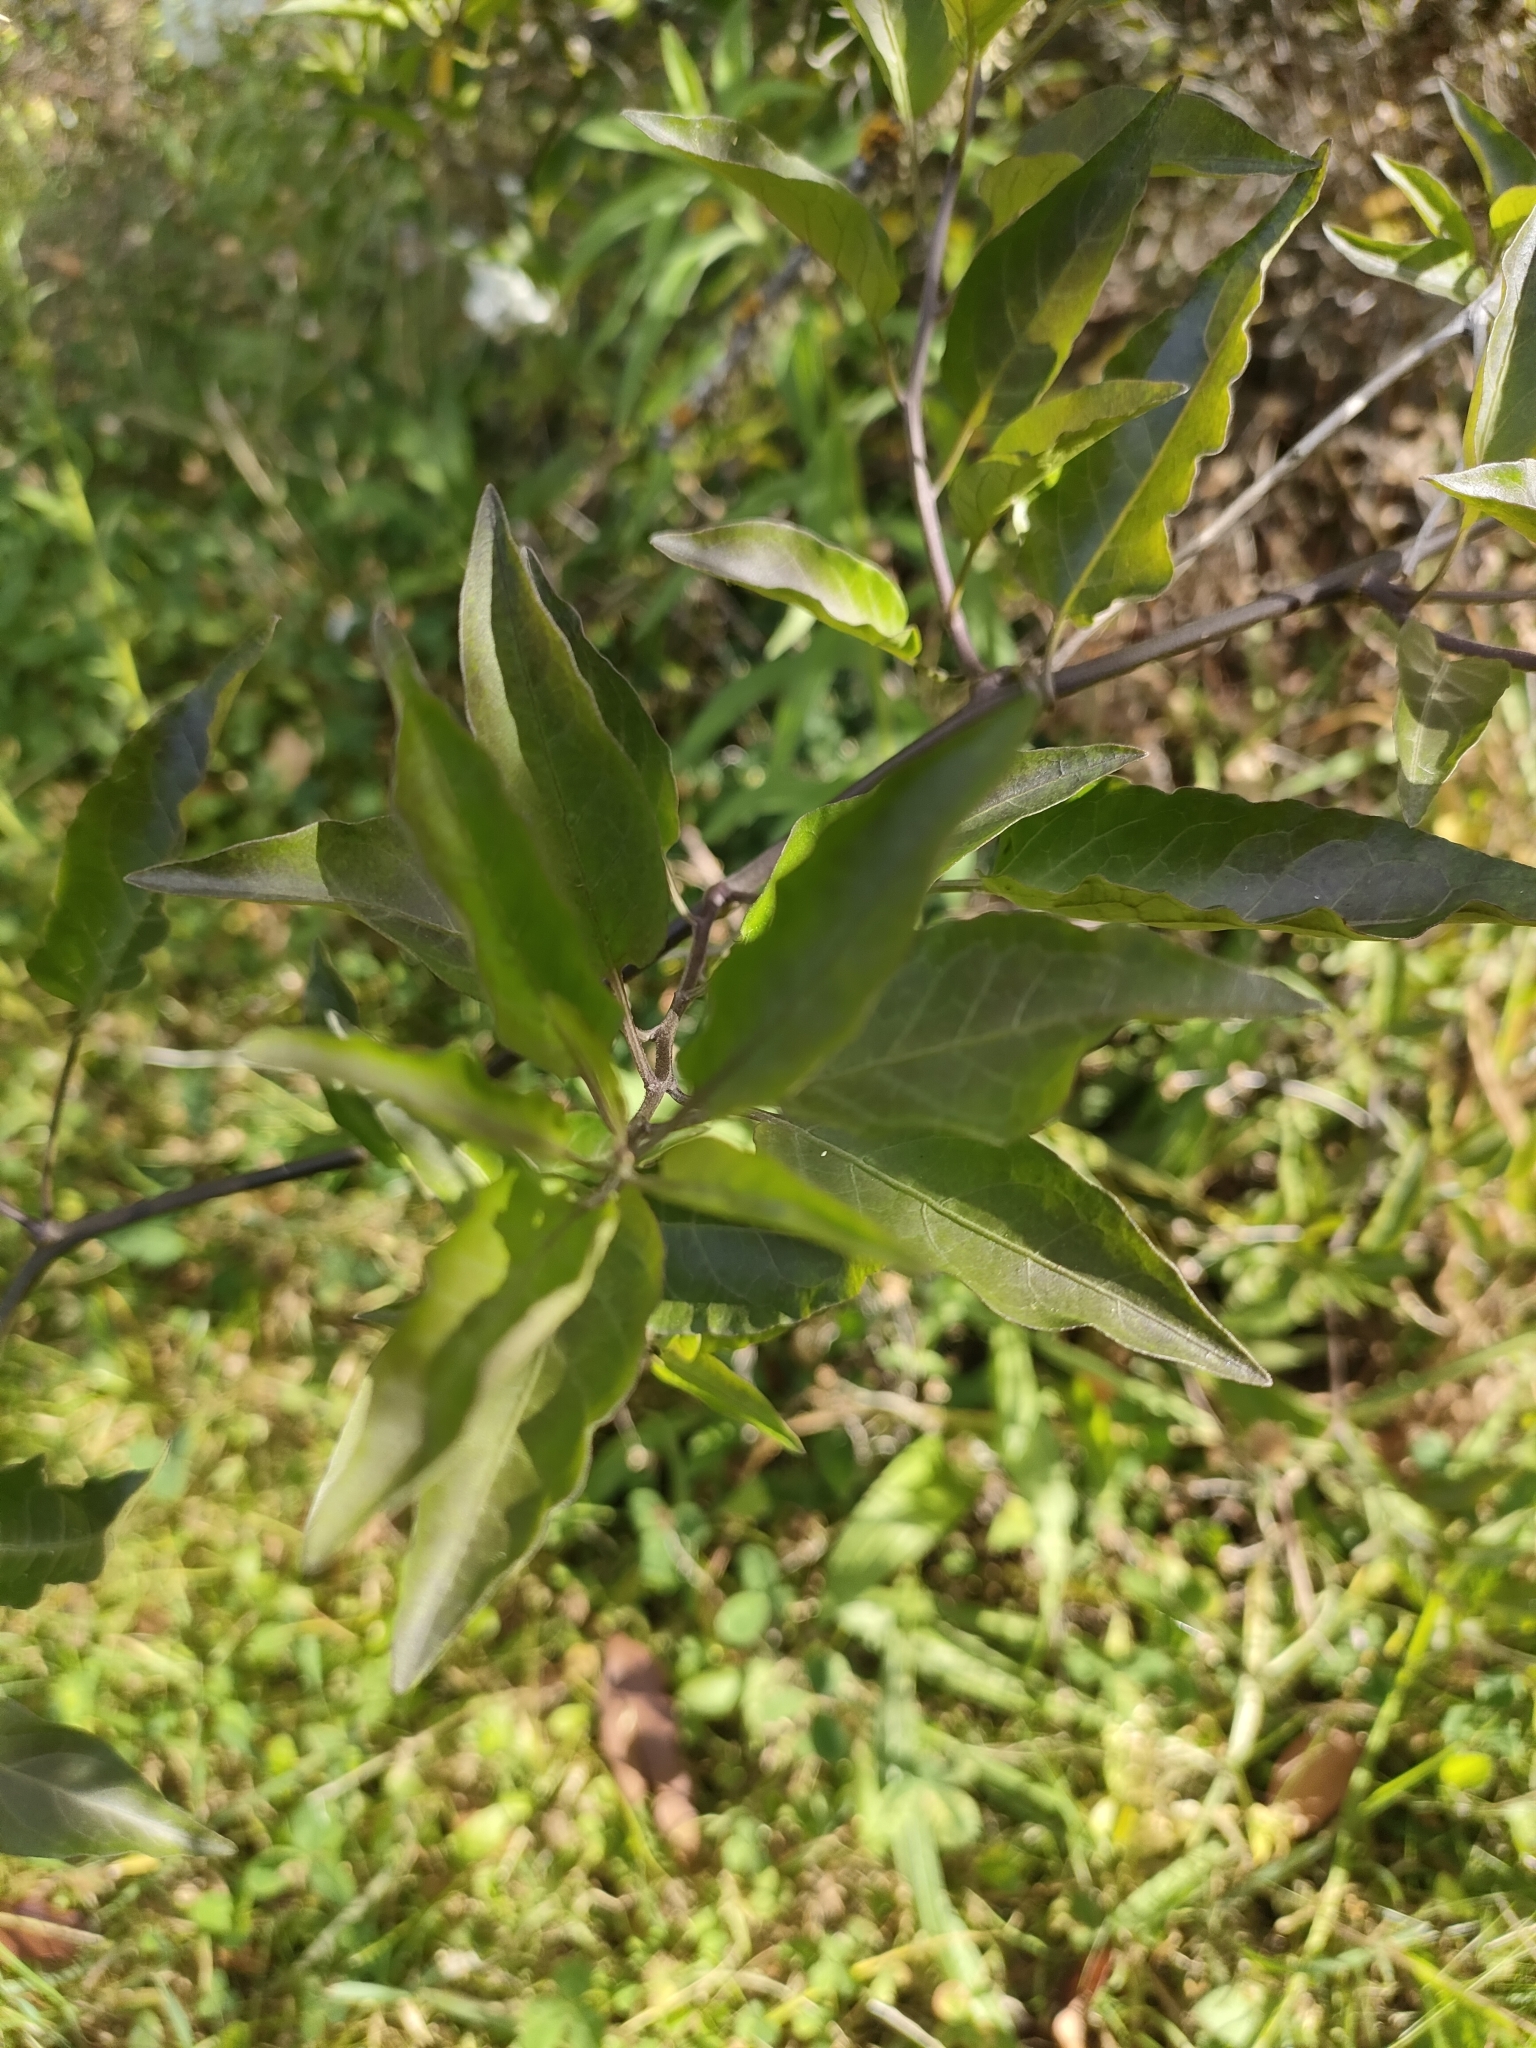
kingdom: Plantae
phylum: Tracheophyta
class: Magnoliopsida
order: Solanales
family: Solanaceae
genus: Solanum
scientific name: Solanum laxum
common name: Nightshade
